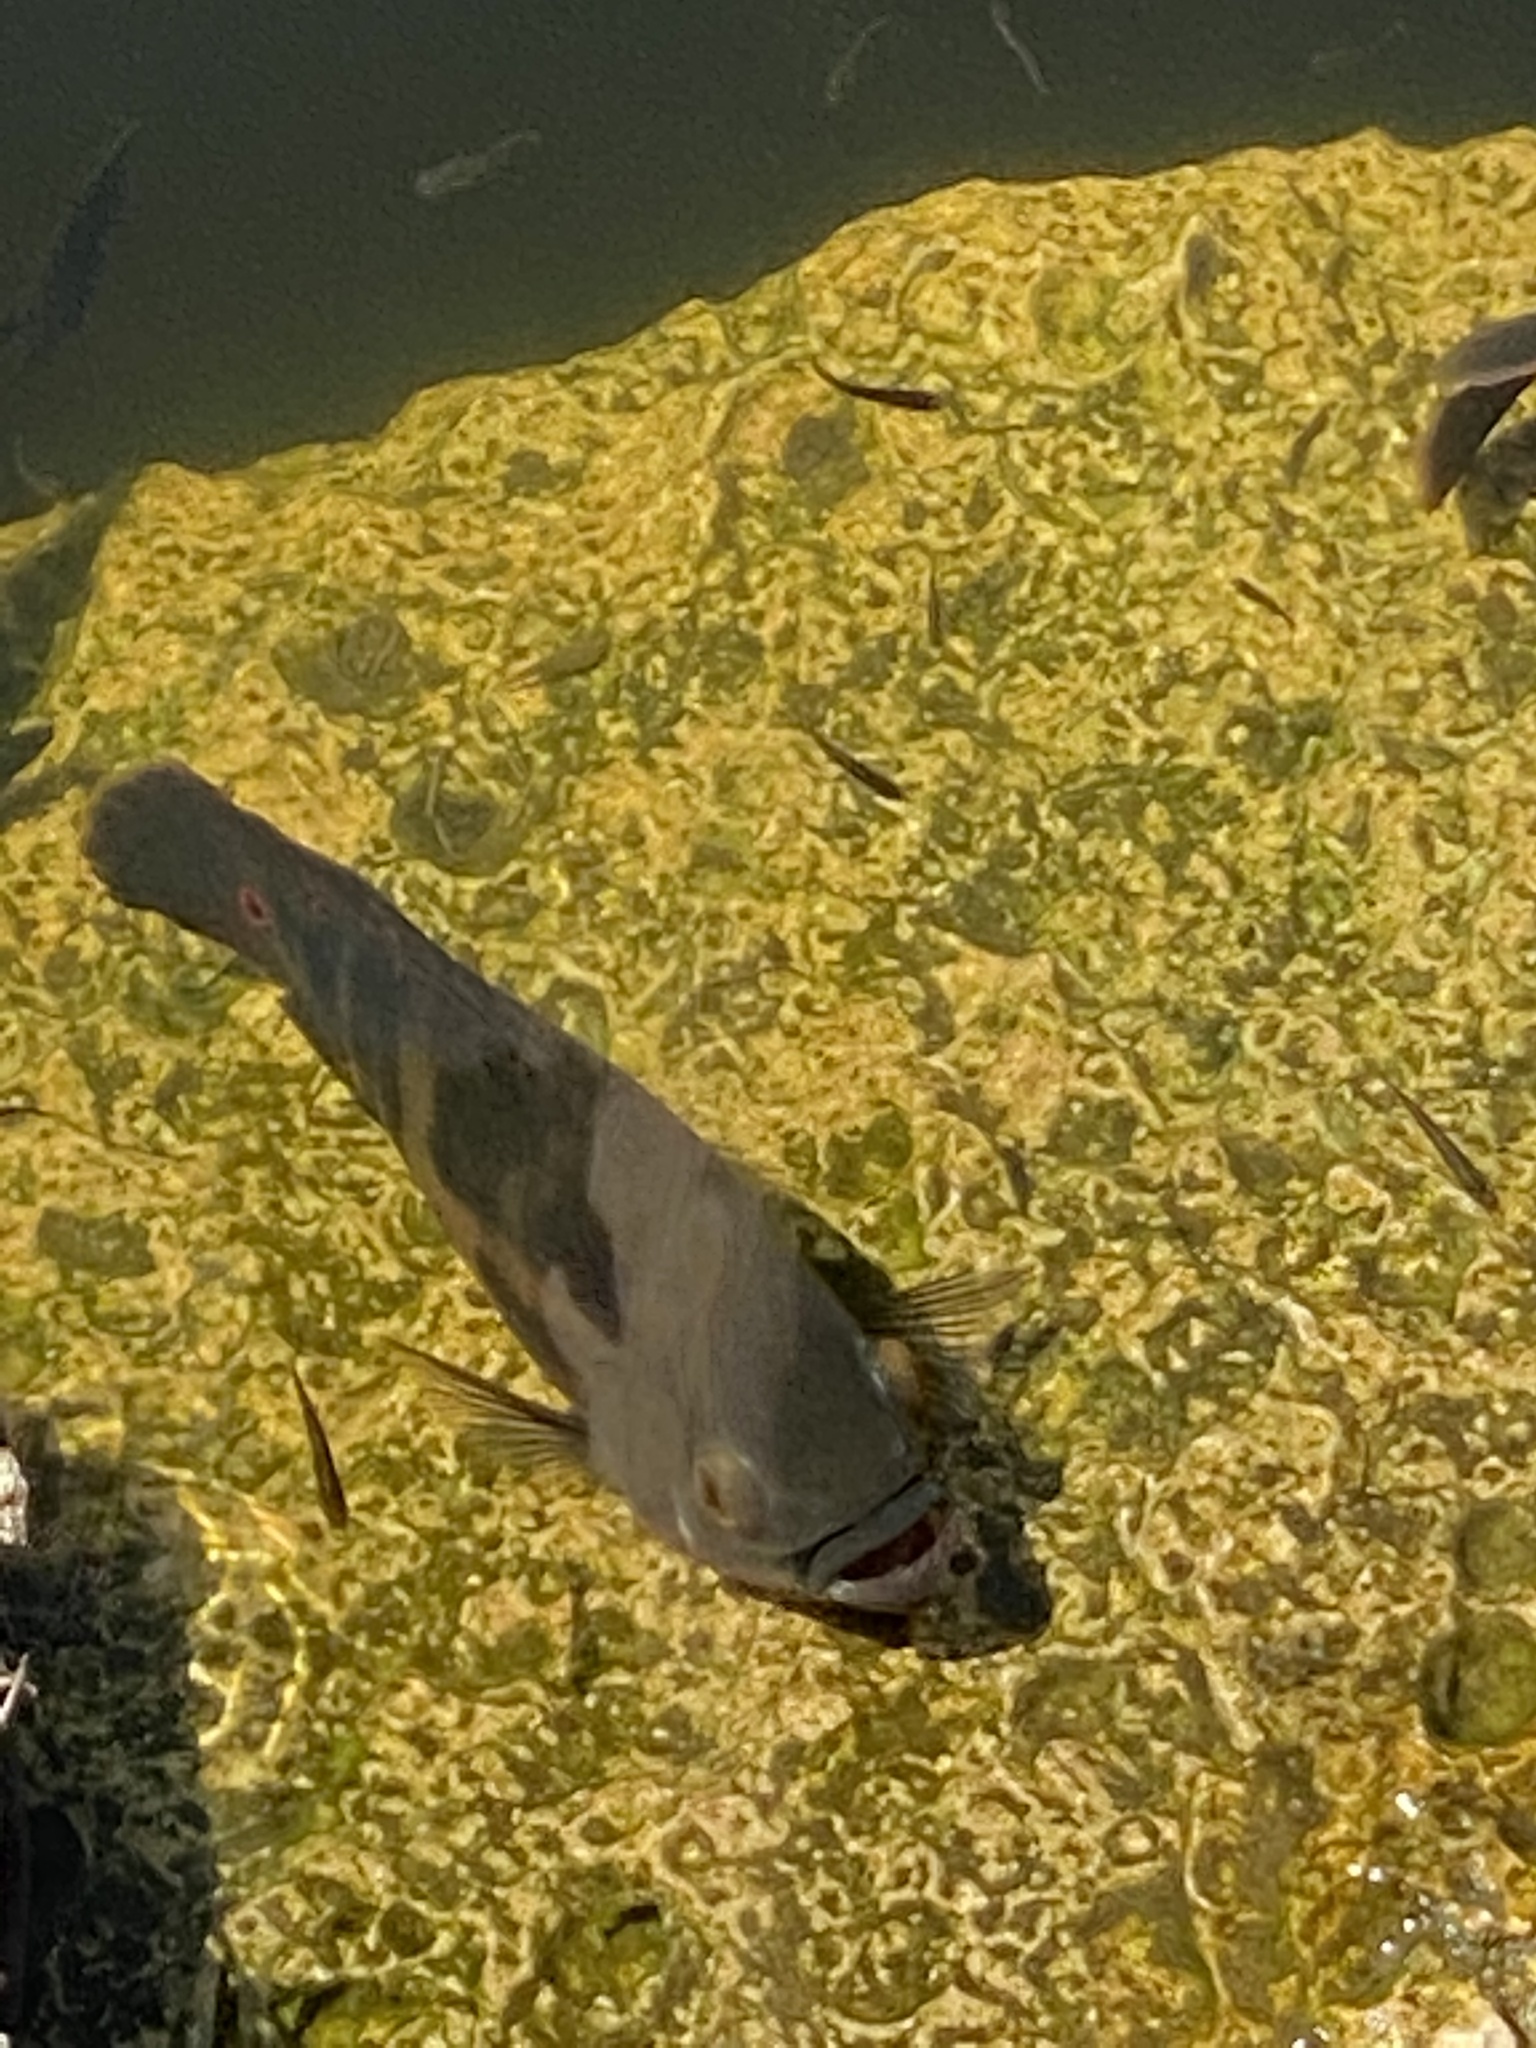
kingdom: Animalia
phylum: Chordata
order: Perciformes
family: Cichlidae
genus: Astronotus
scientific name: Astronotus ocellatus
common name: Oscar
